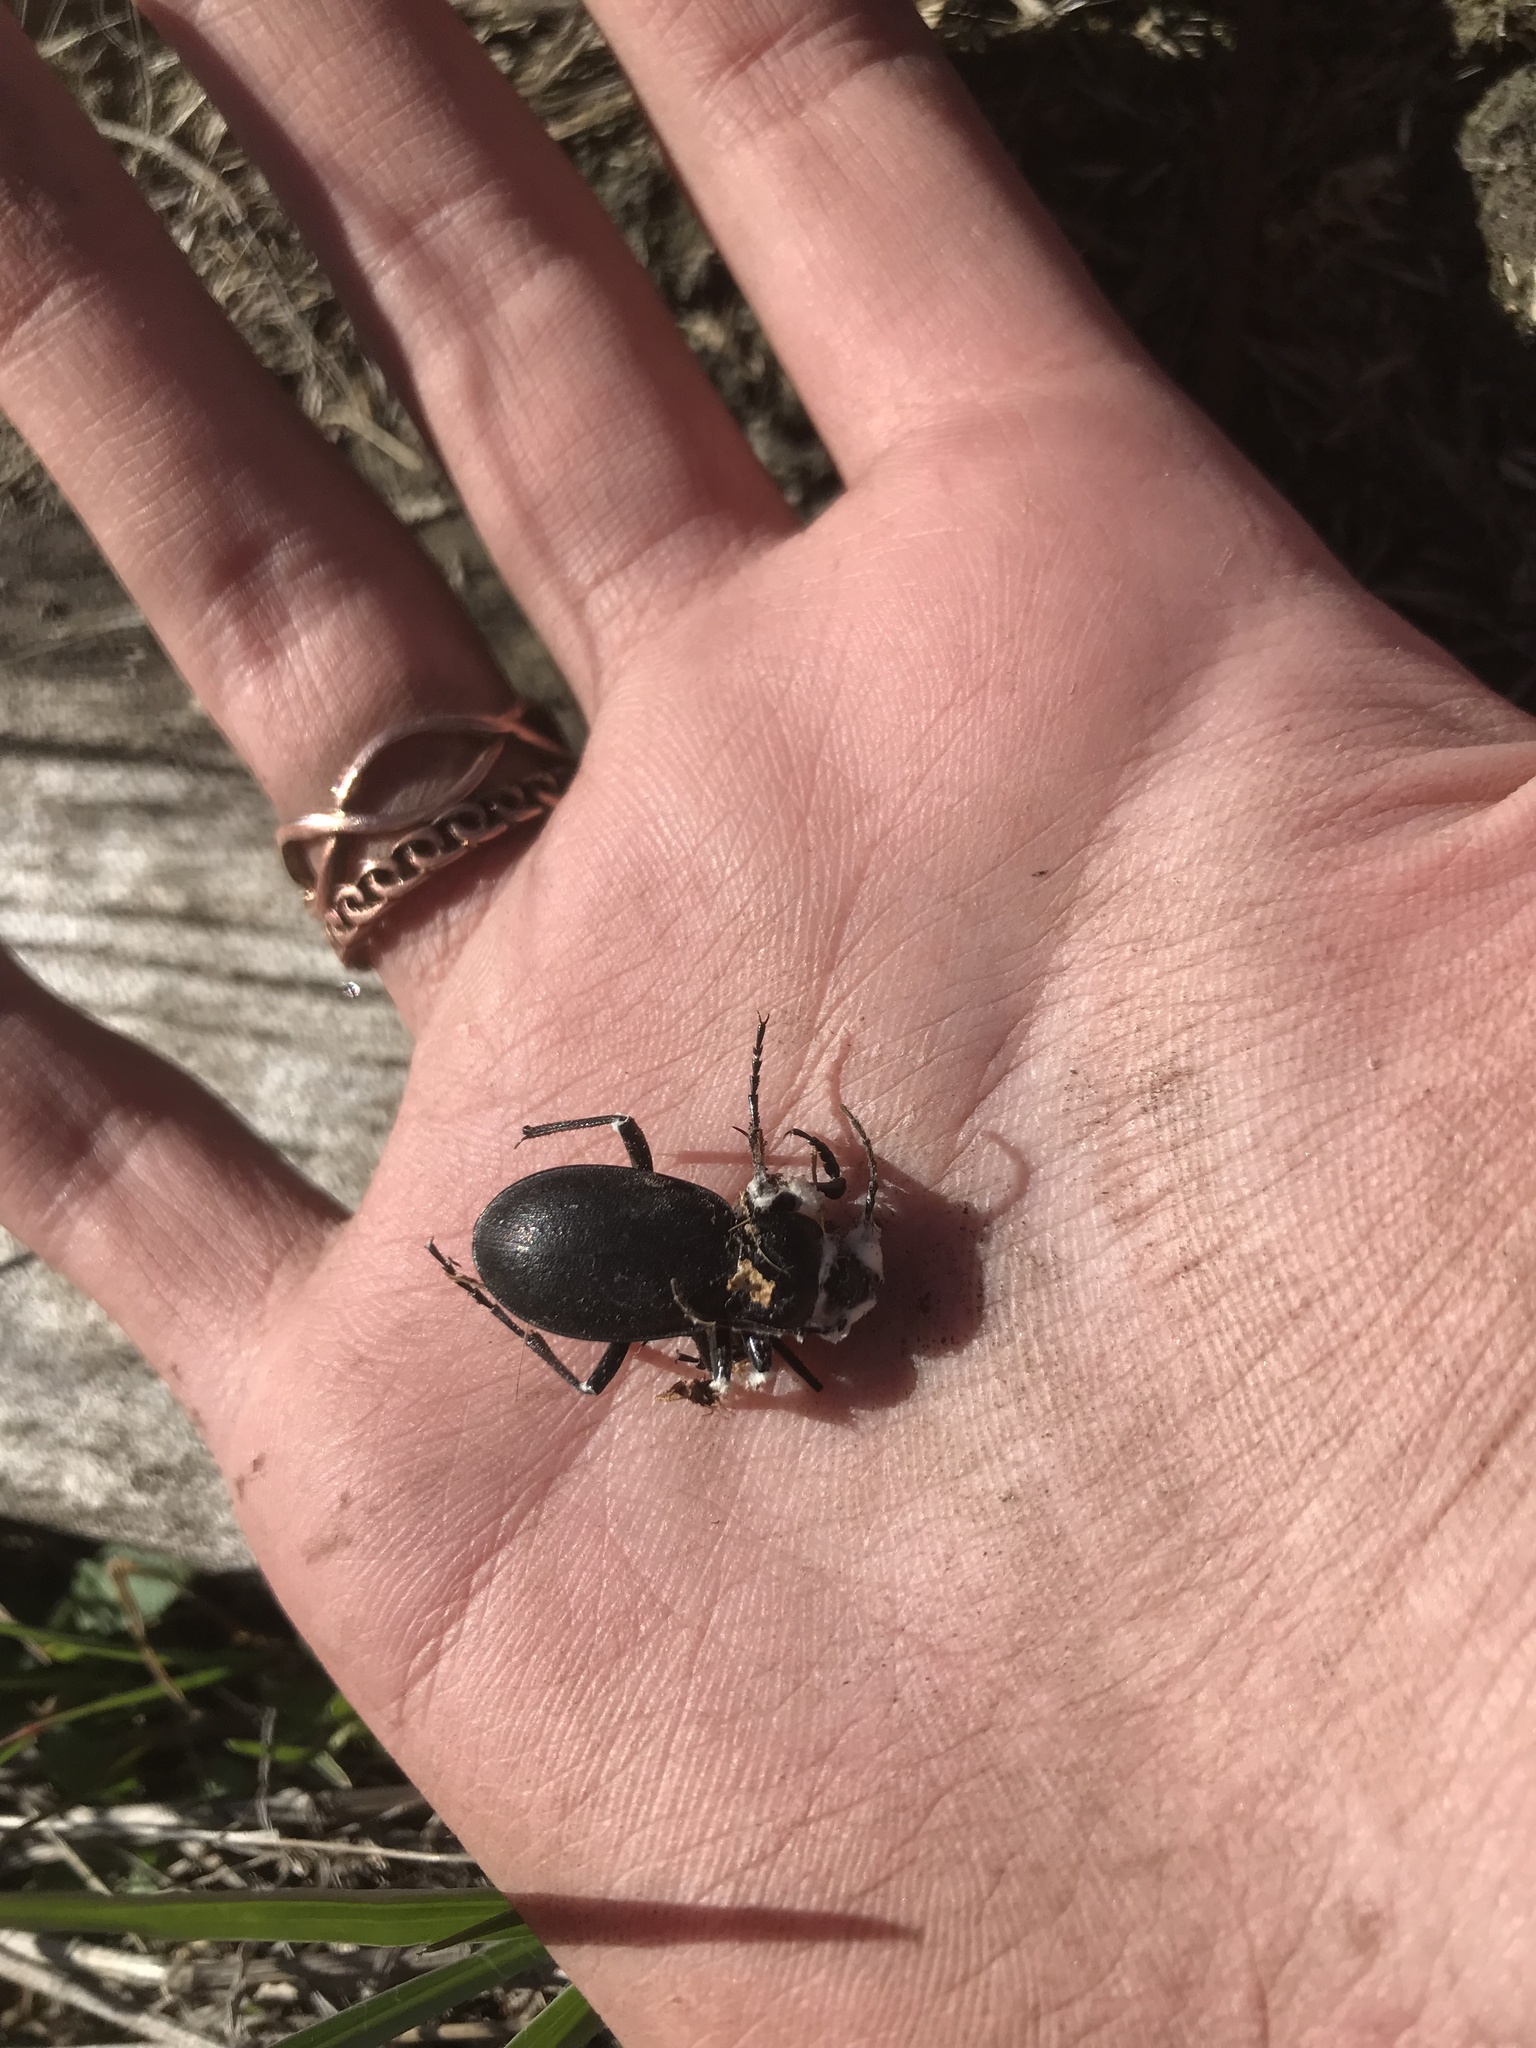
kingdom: Animalia
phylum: Arthropoda
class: Insecta
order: Coleoptera
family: Carabidae
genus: Carabus
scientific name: Carabus taedatus
